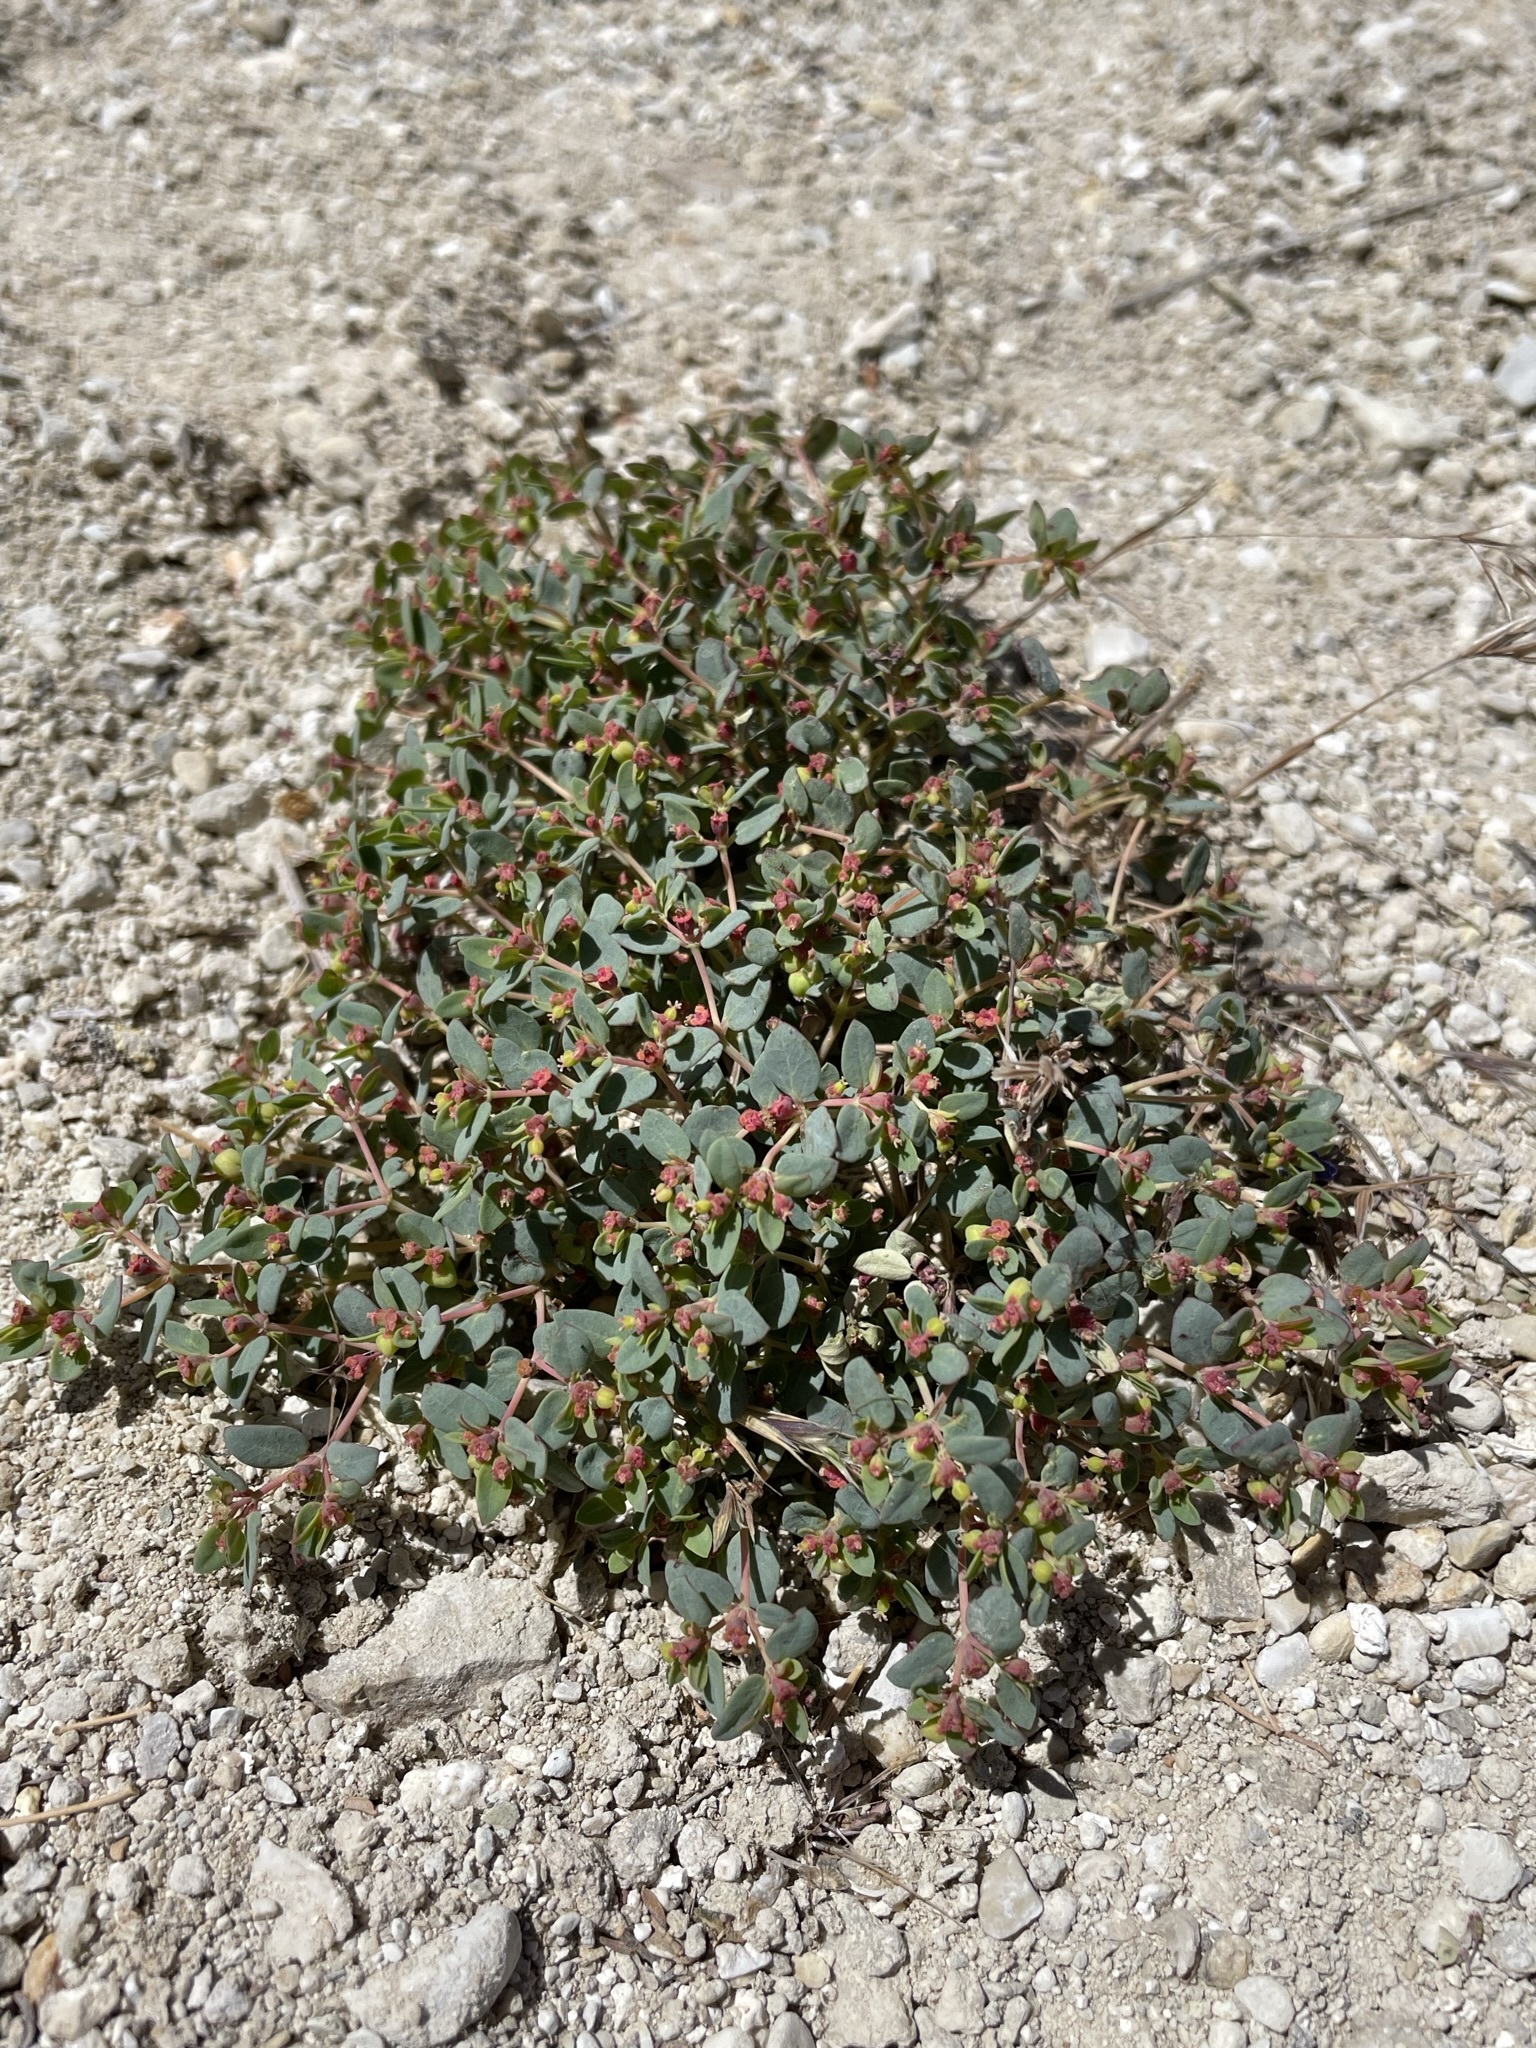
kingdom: Plantae
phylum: Tracheophyta
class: Magnoliopsida
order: Malpighiales
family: Euphorbiaceae
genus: Euphorbia
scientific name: Euphorbia fendleri
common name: Fendler's euphorbia
